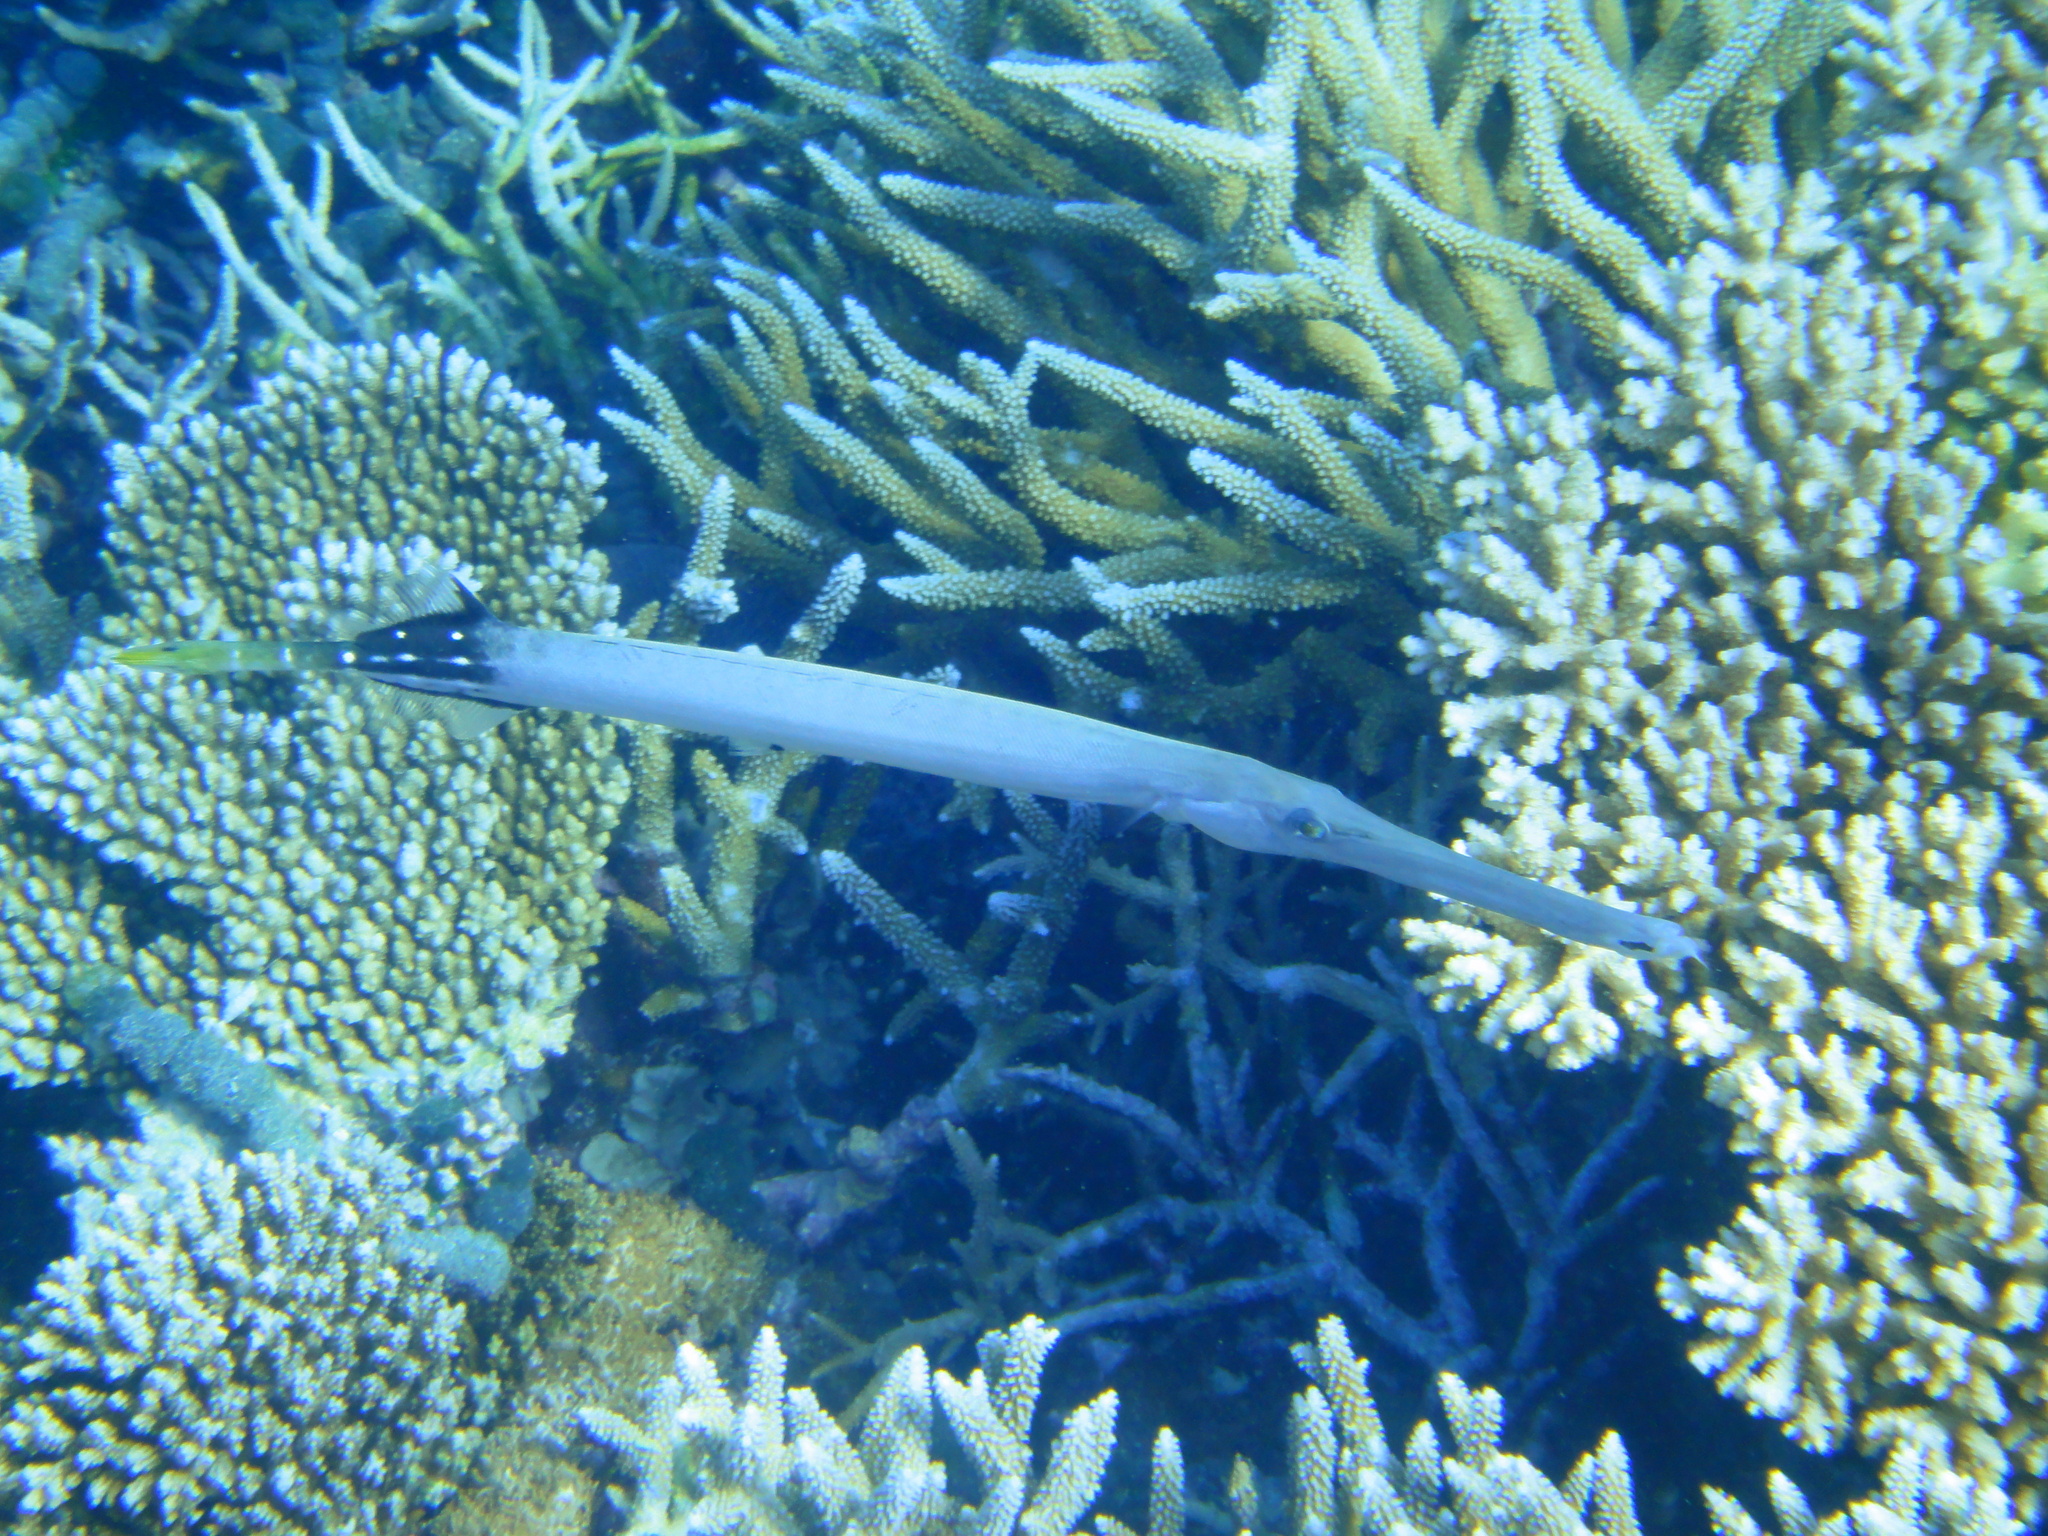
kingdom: Animalia
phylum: Chordata
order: Syngnathiformes
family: Aulostomidae
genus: Aulostomus
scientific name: Aulostomus chinensis
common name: Chinese trumpetfish
